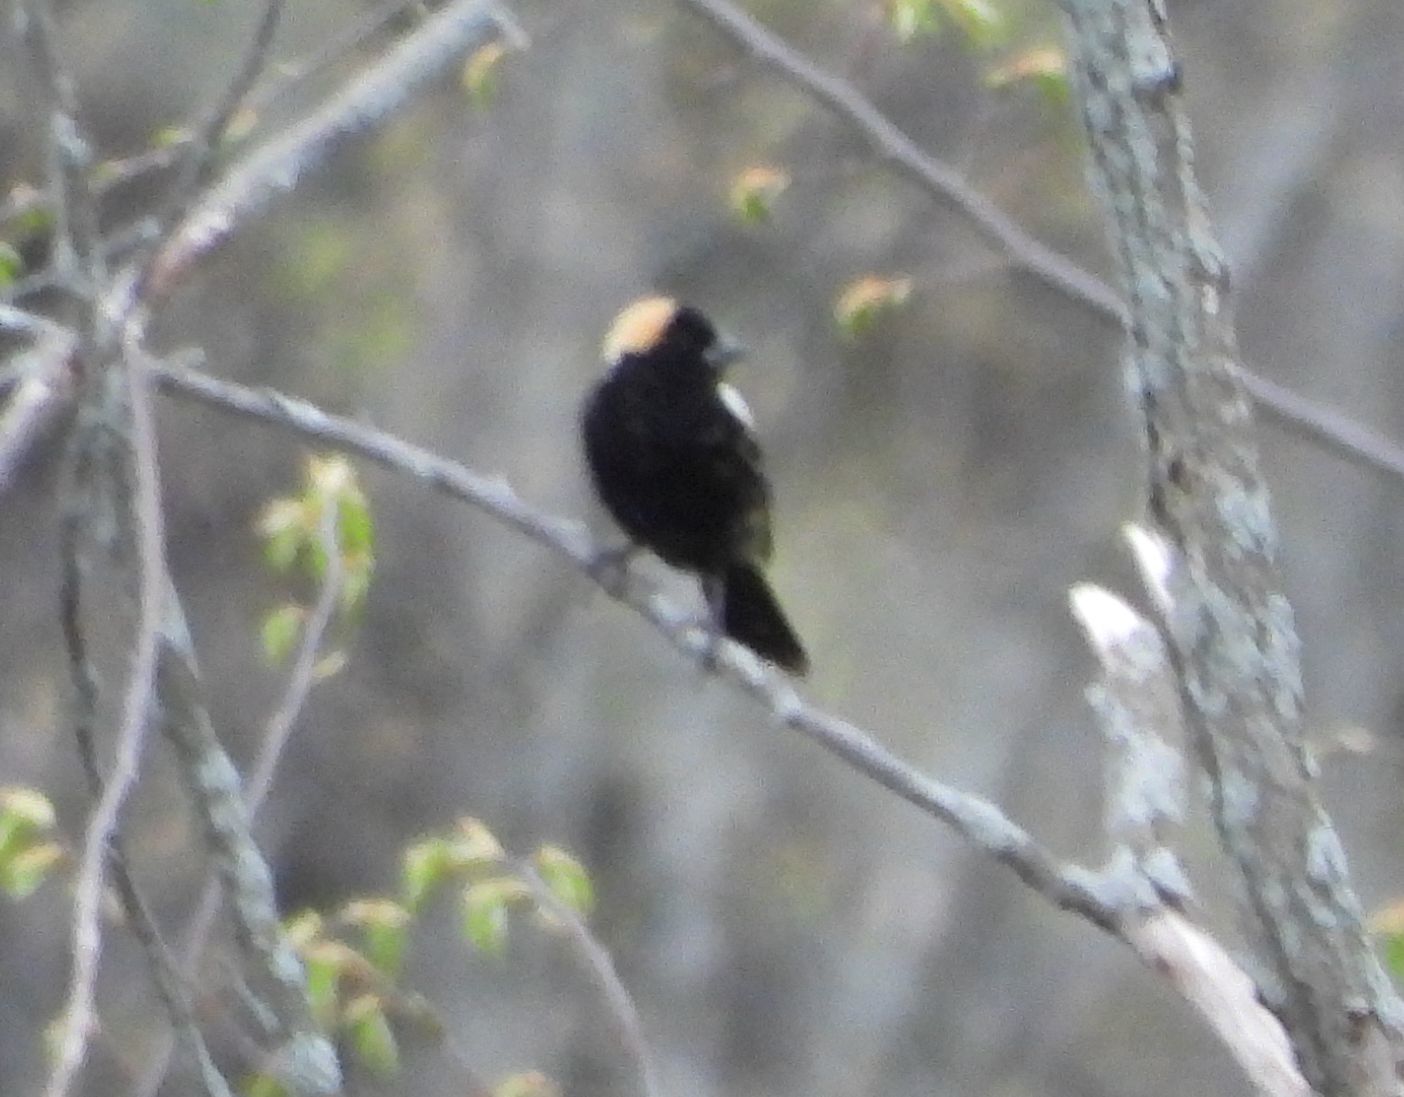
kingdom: Animalia
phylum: Chordata
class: Aves
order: Passeriformes
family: Icteridae
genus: Dolichonyx
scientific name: Dolichonyx oryzivorus
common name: Bobolink
